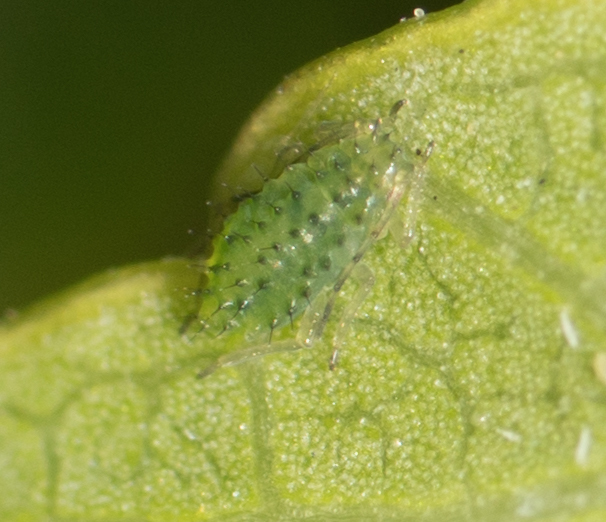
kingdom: Animalia
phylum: Arthropoda
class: Insecta
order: Hemiptera
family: Aphididae
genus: Tinocallis
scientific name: Tinocallis ulmiparvifoliae
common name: Aphid
